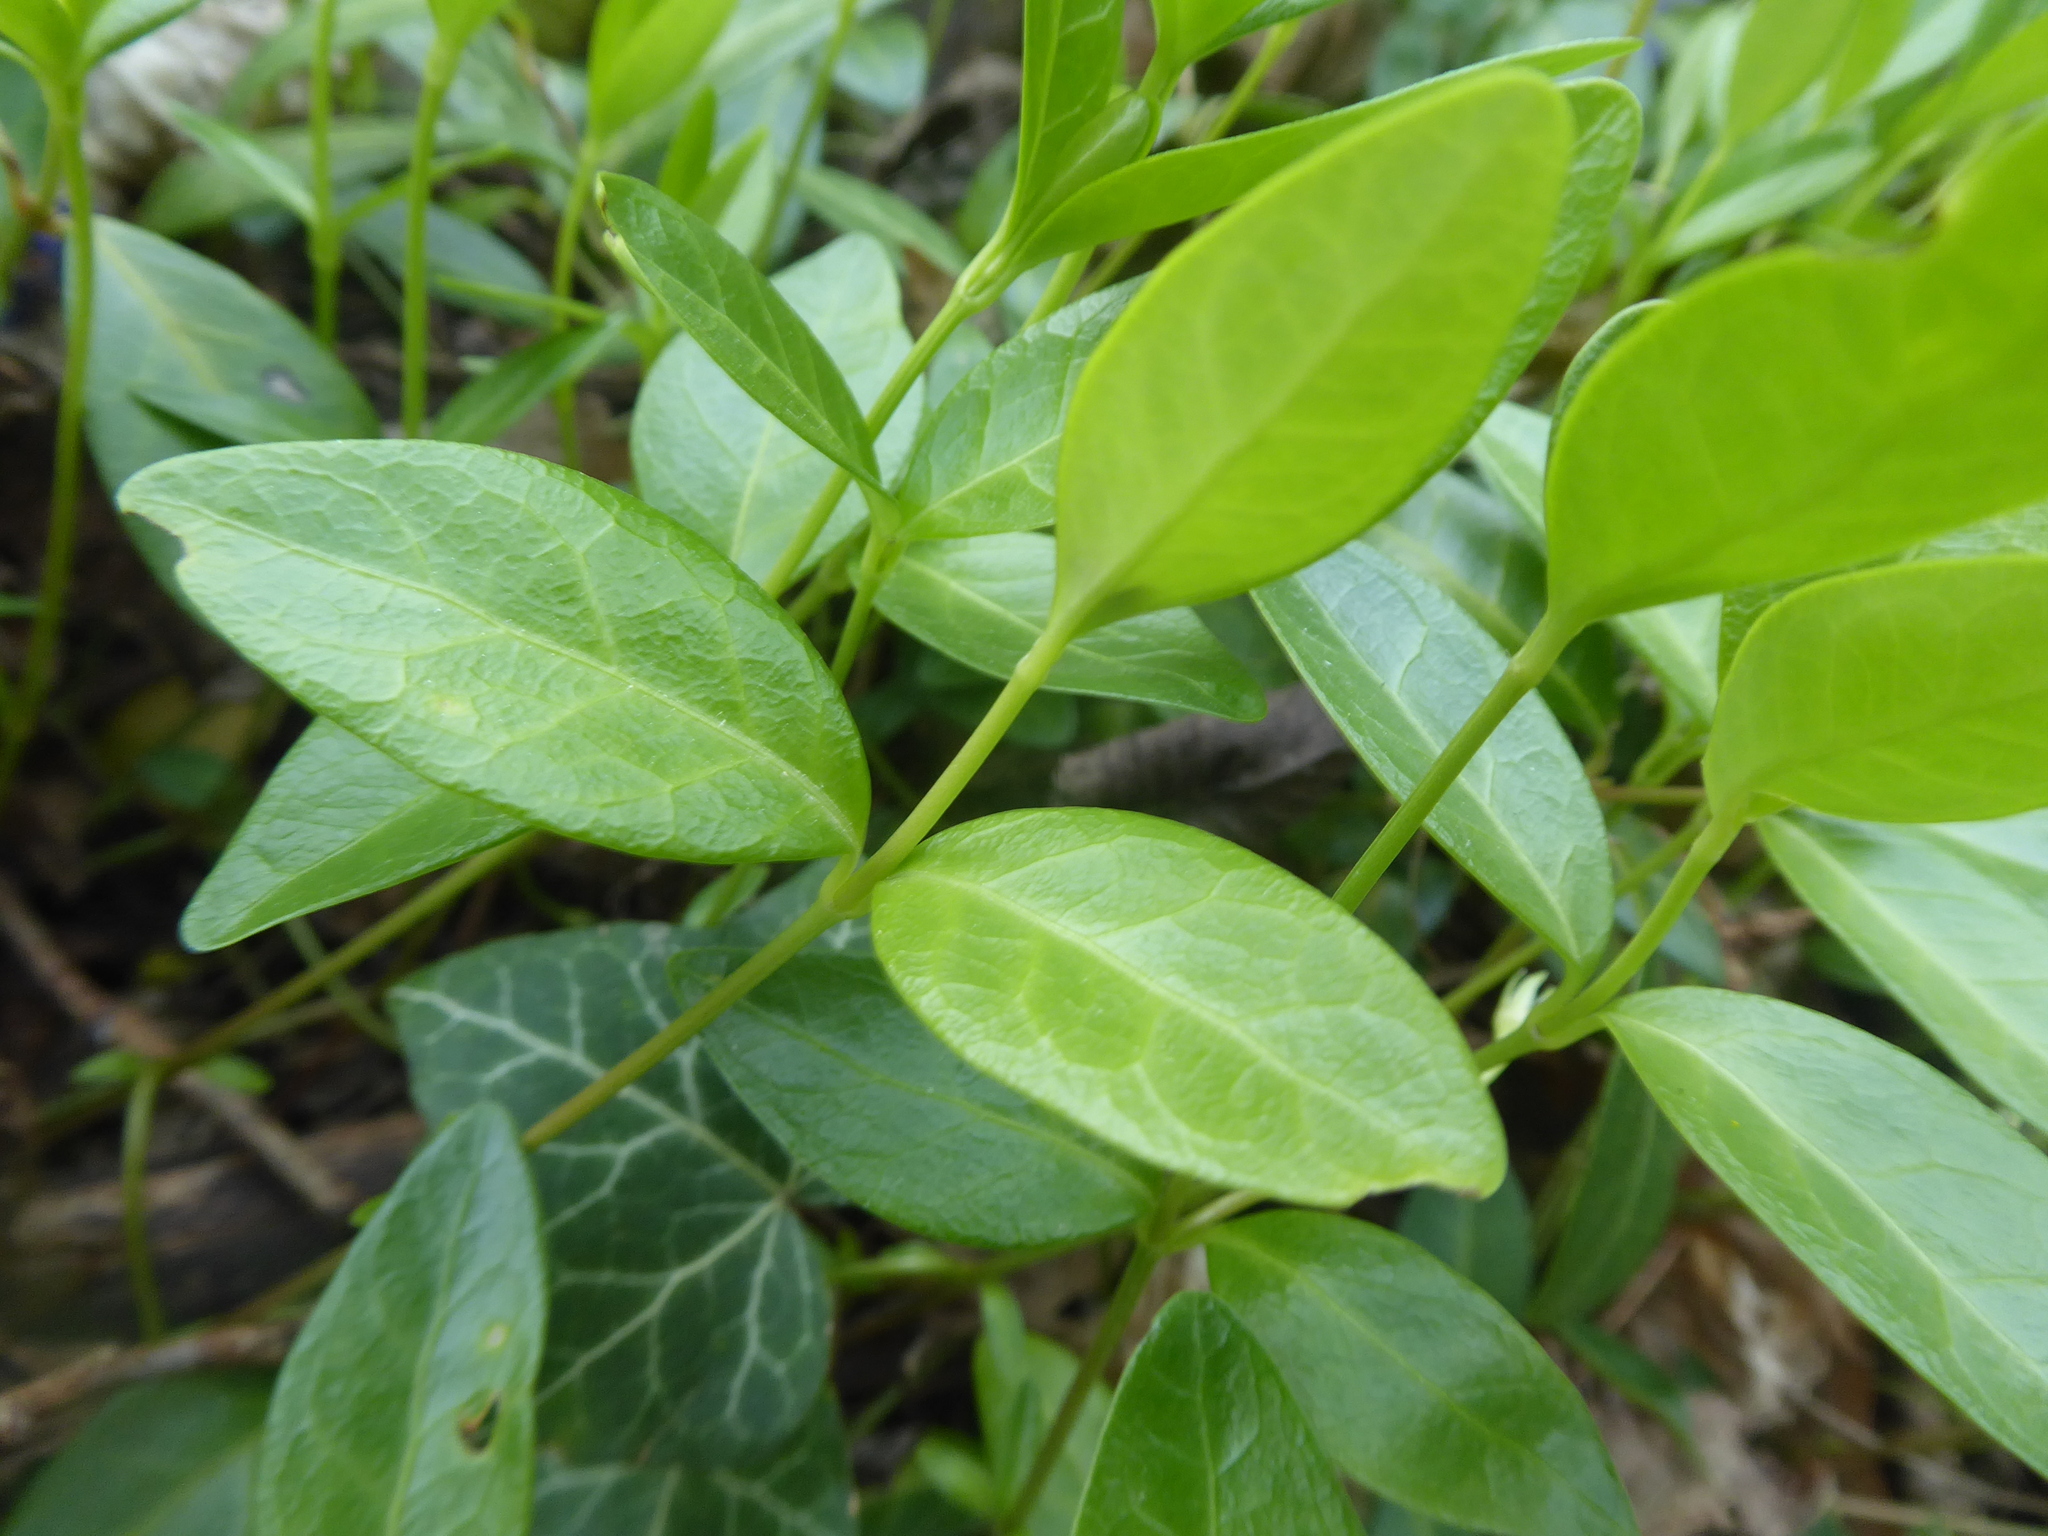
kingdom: Plantae
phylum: Tracheophyta
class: Magnoliopsida
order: Gentianales
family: Apocynaceae
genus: Vinca
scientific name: Vinca minor
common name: Lesser periwinkle
